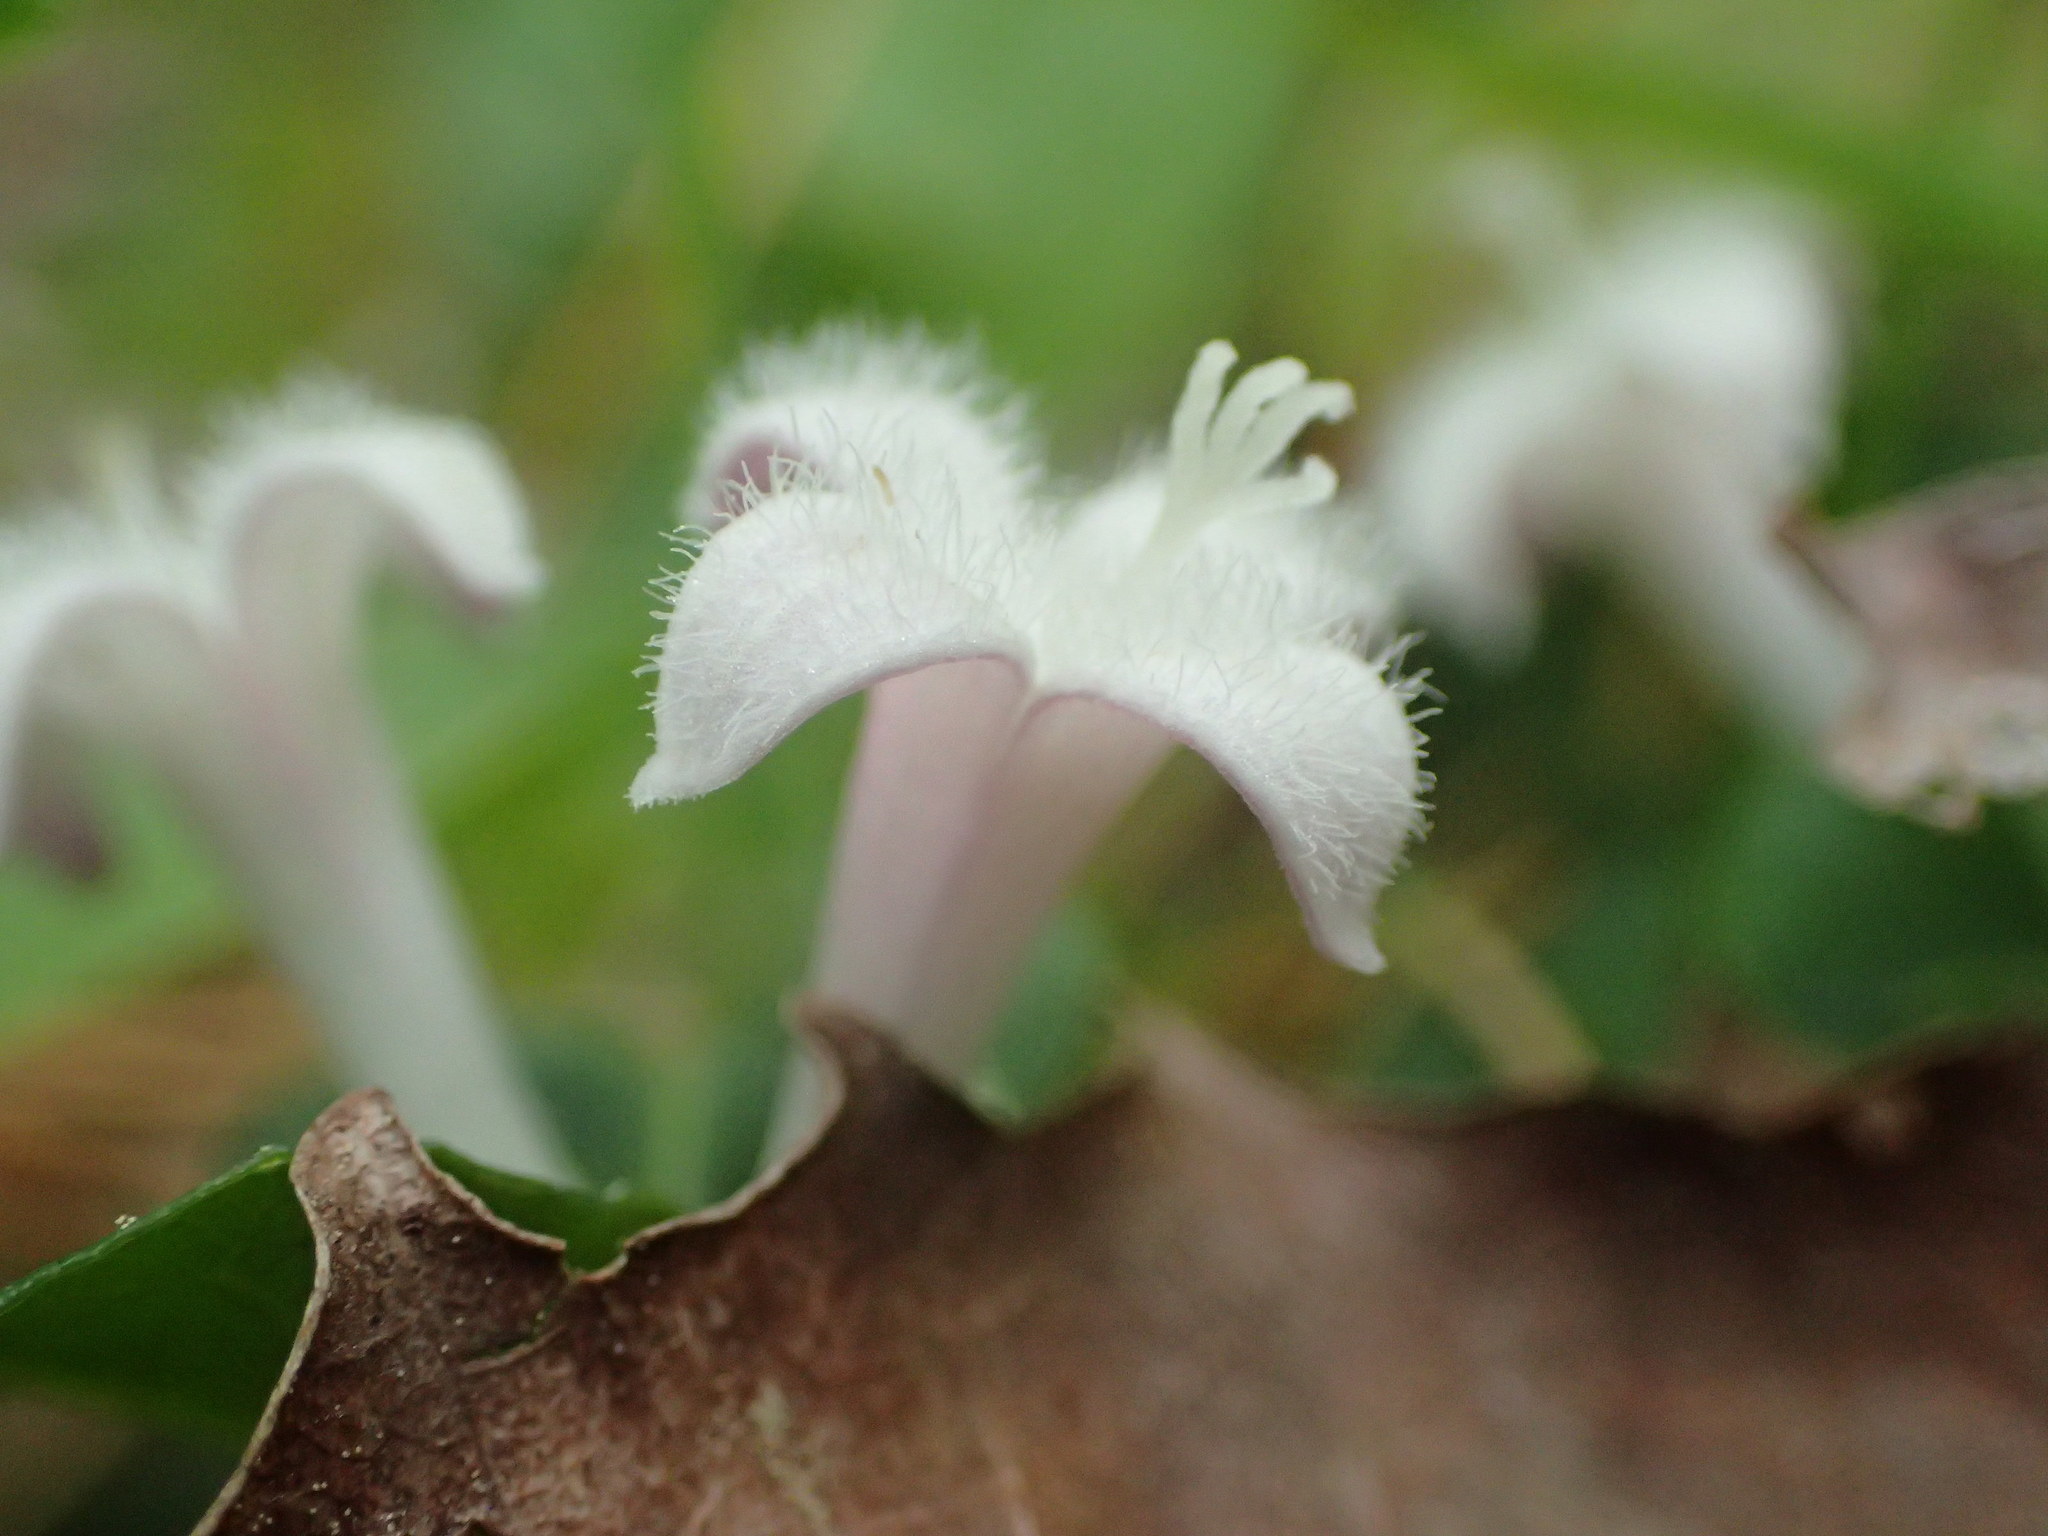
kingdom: Plantae
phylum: Tracheophyta
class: Magnoliopsida
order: Gentianales
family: Rubiaceae
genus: Mitchella
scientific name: Mitchella repens
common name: Partridge-berry
